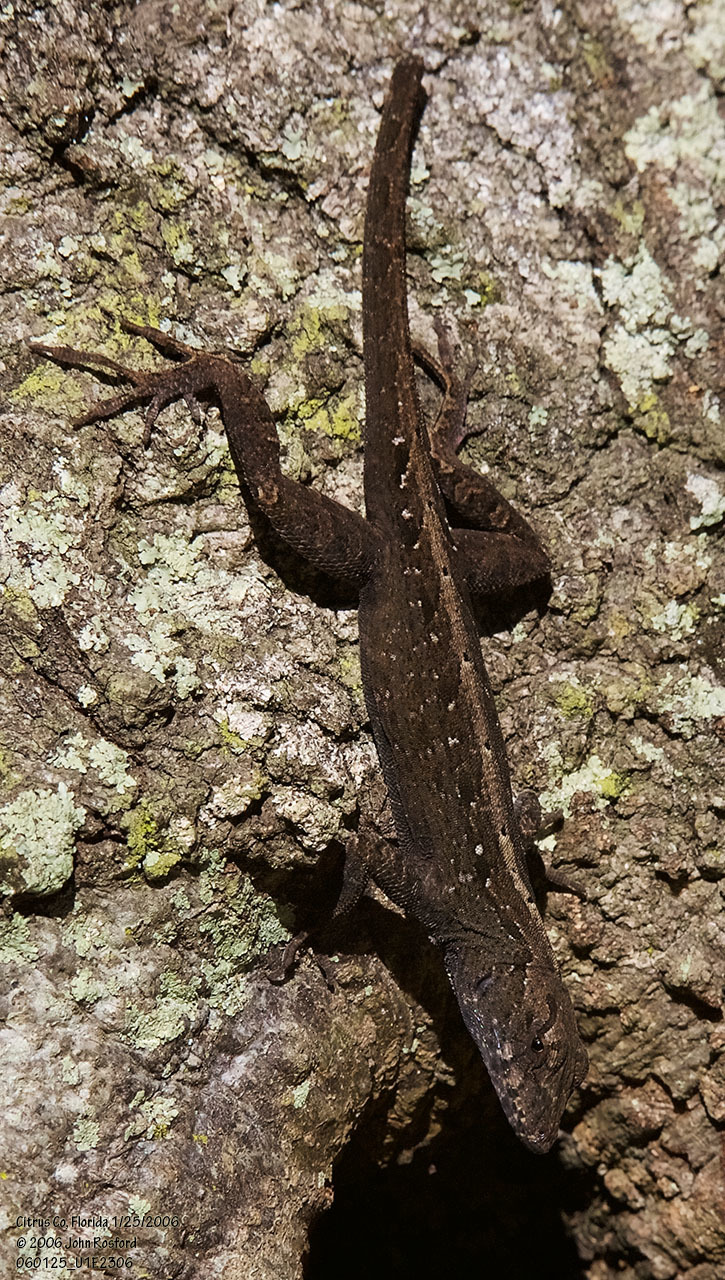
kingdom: Animalia
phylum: Chordata
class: Squamata
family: Dactyloidae
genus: Anolis
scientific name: Anolis sagrei
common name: Brown anole
